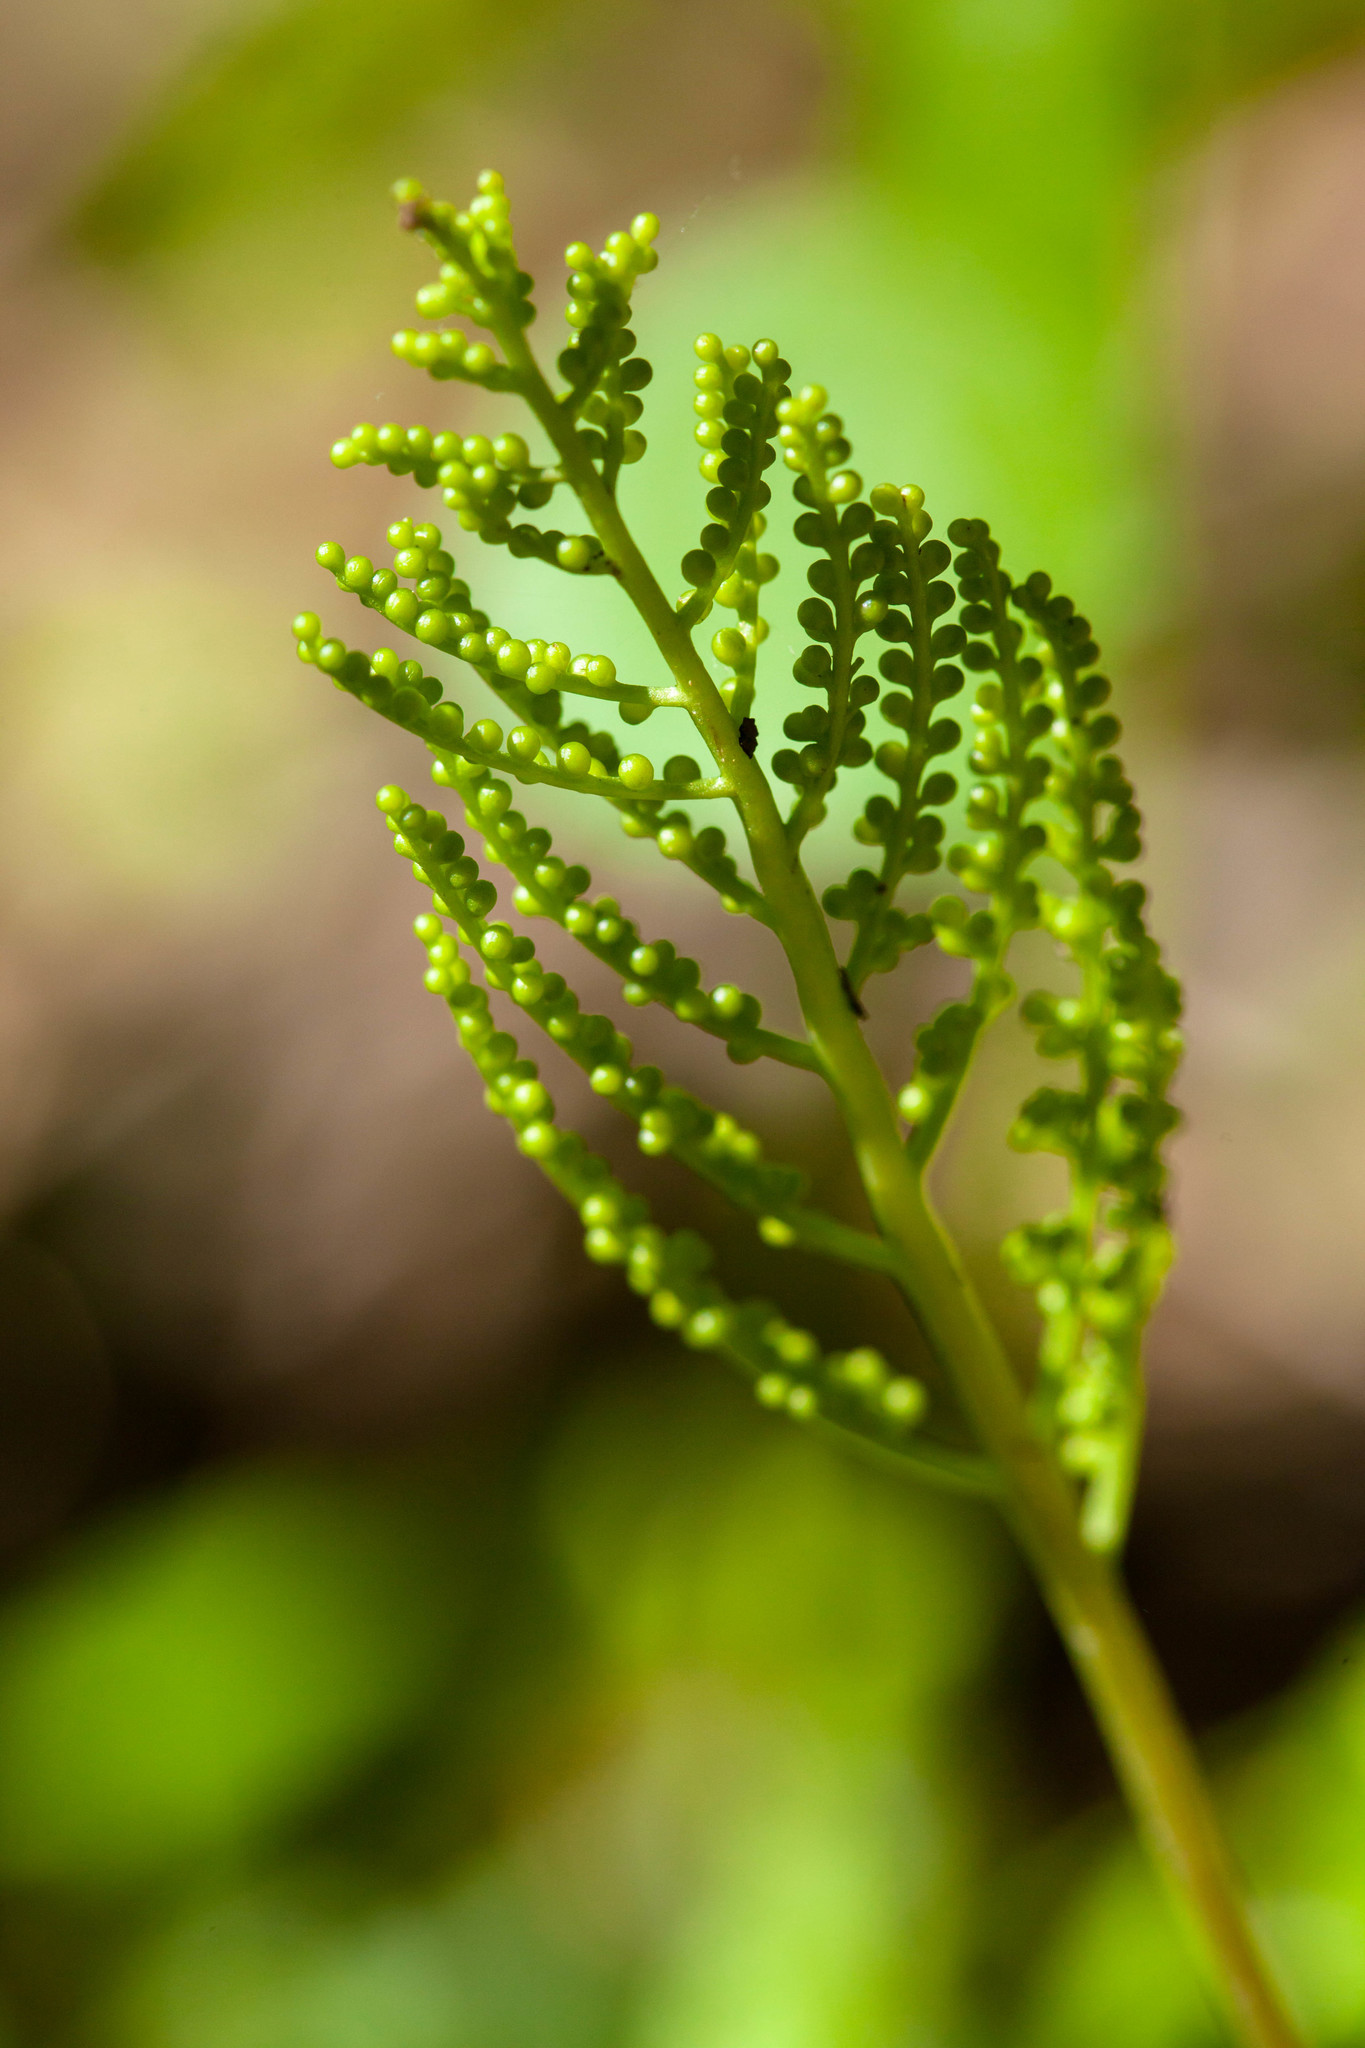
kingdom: Plantae
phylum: Tracheophyta
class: Polypodiopsida
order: Ophioglossales
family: Ophioglossaceae
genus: Botrypus
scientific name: Botrypus virginianus
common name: Common grapefern
